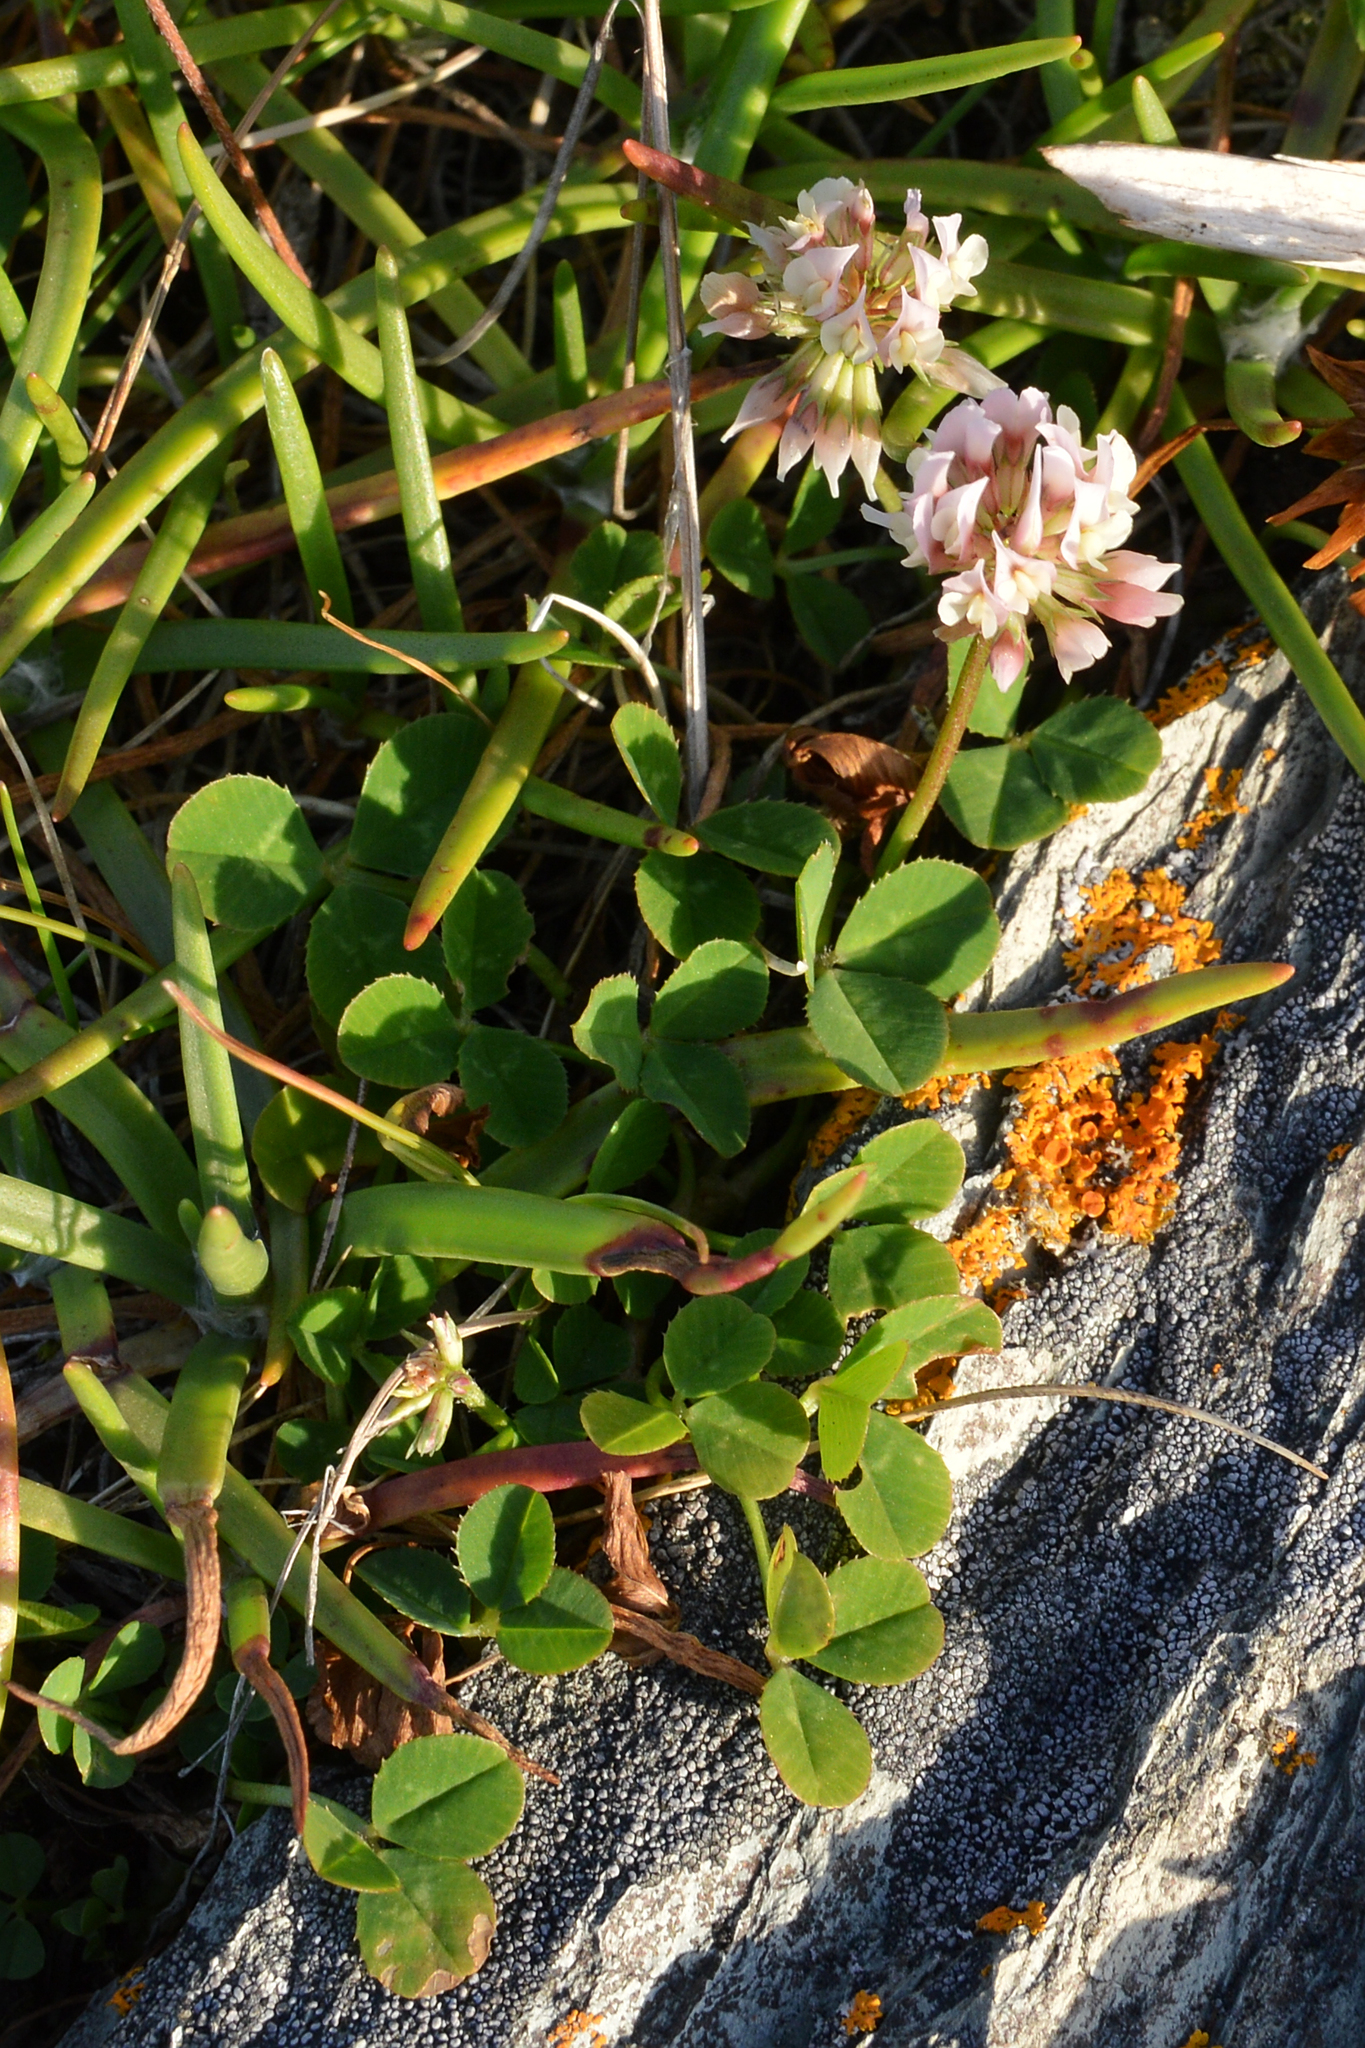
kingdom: Plantae
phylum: Tracheophyta
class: Magnoliopsida
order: Fabales
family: Fabaceae
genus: Trifolium
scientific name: Trifolium repens
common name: White clover
